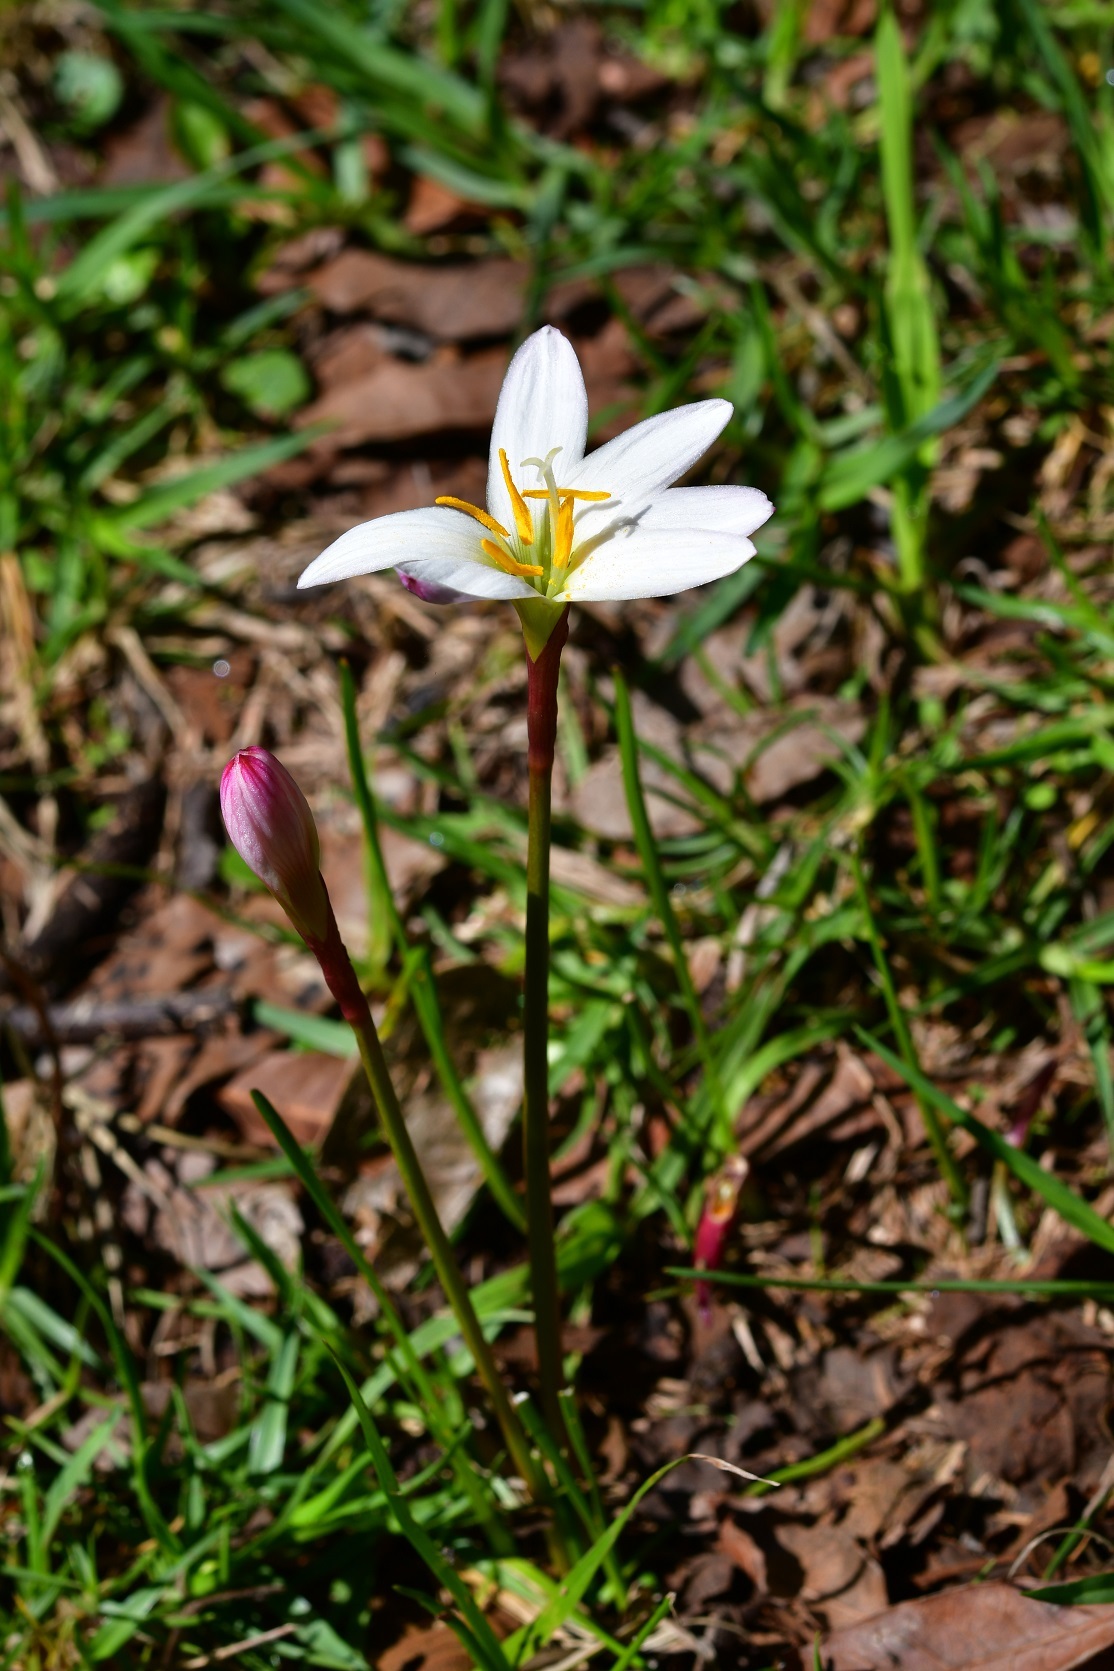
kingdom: Plantae
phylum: Tracheophyta
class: Liliopsida
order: Asparagales
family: Amaryllidaceae
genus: Zephyranthes
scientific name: Zephyranthes minuta
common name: Pink rain lily
